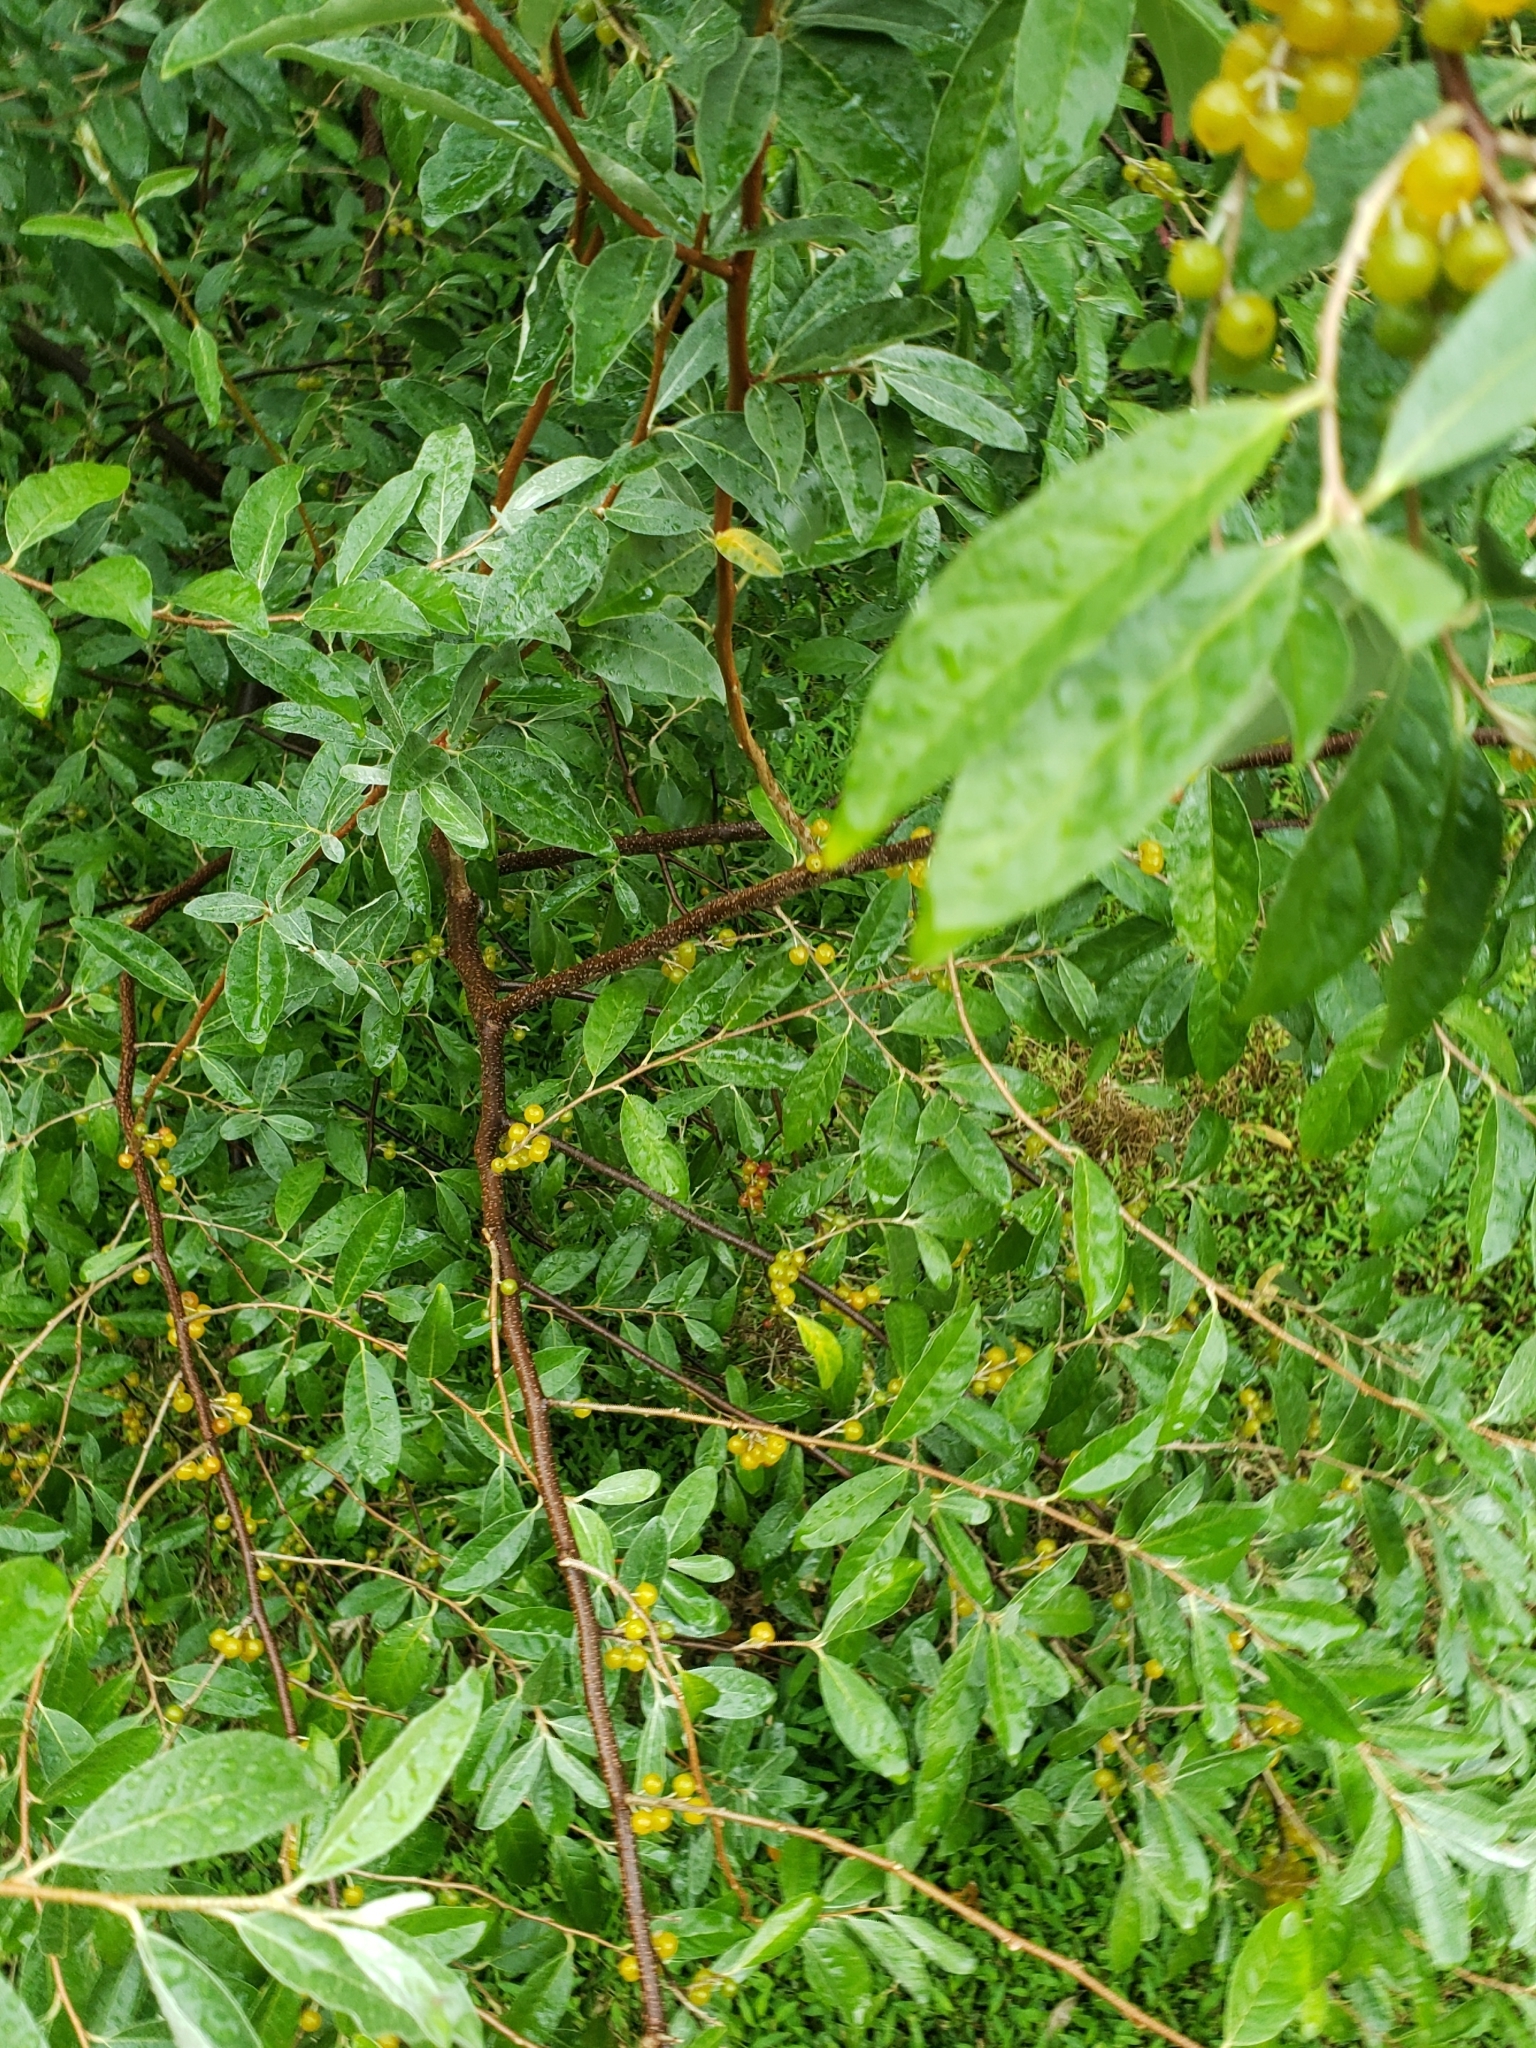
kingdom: Plantae
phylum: Tracheophyta
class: Magnoliopsida
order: Rosales
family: Elaeagnaceae
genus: Elaeagnus
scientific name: Elaeagnus umbellata
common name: Autumn olive
